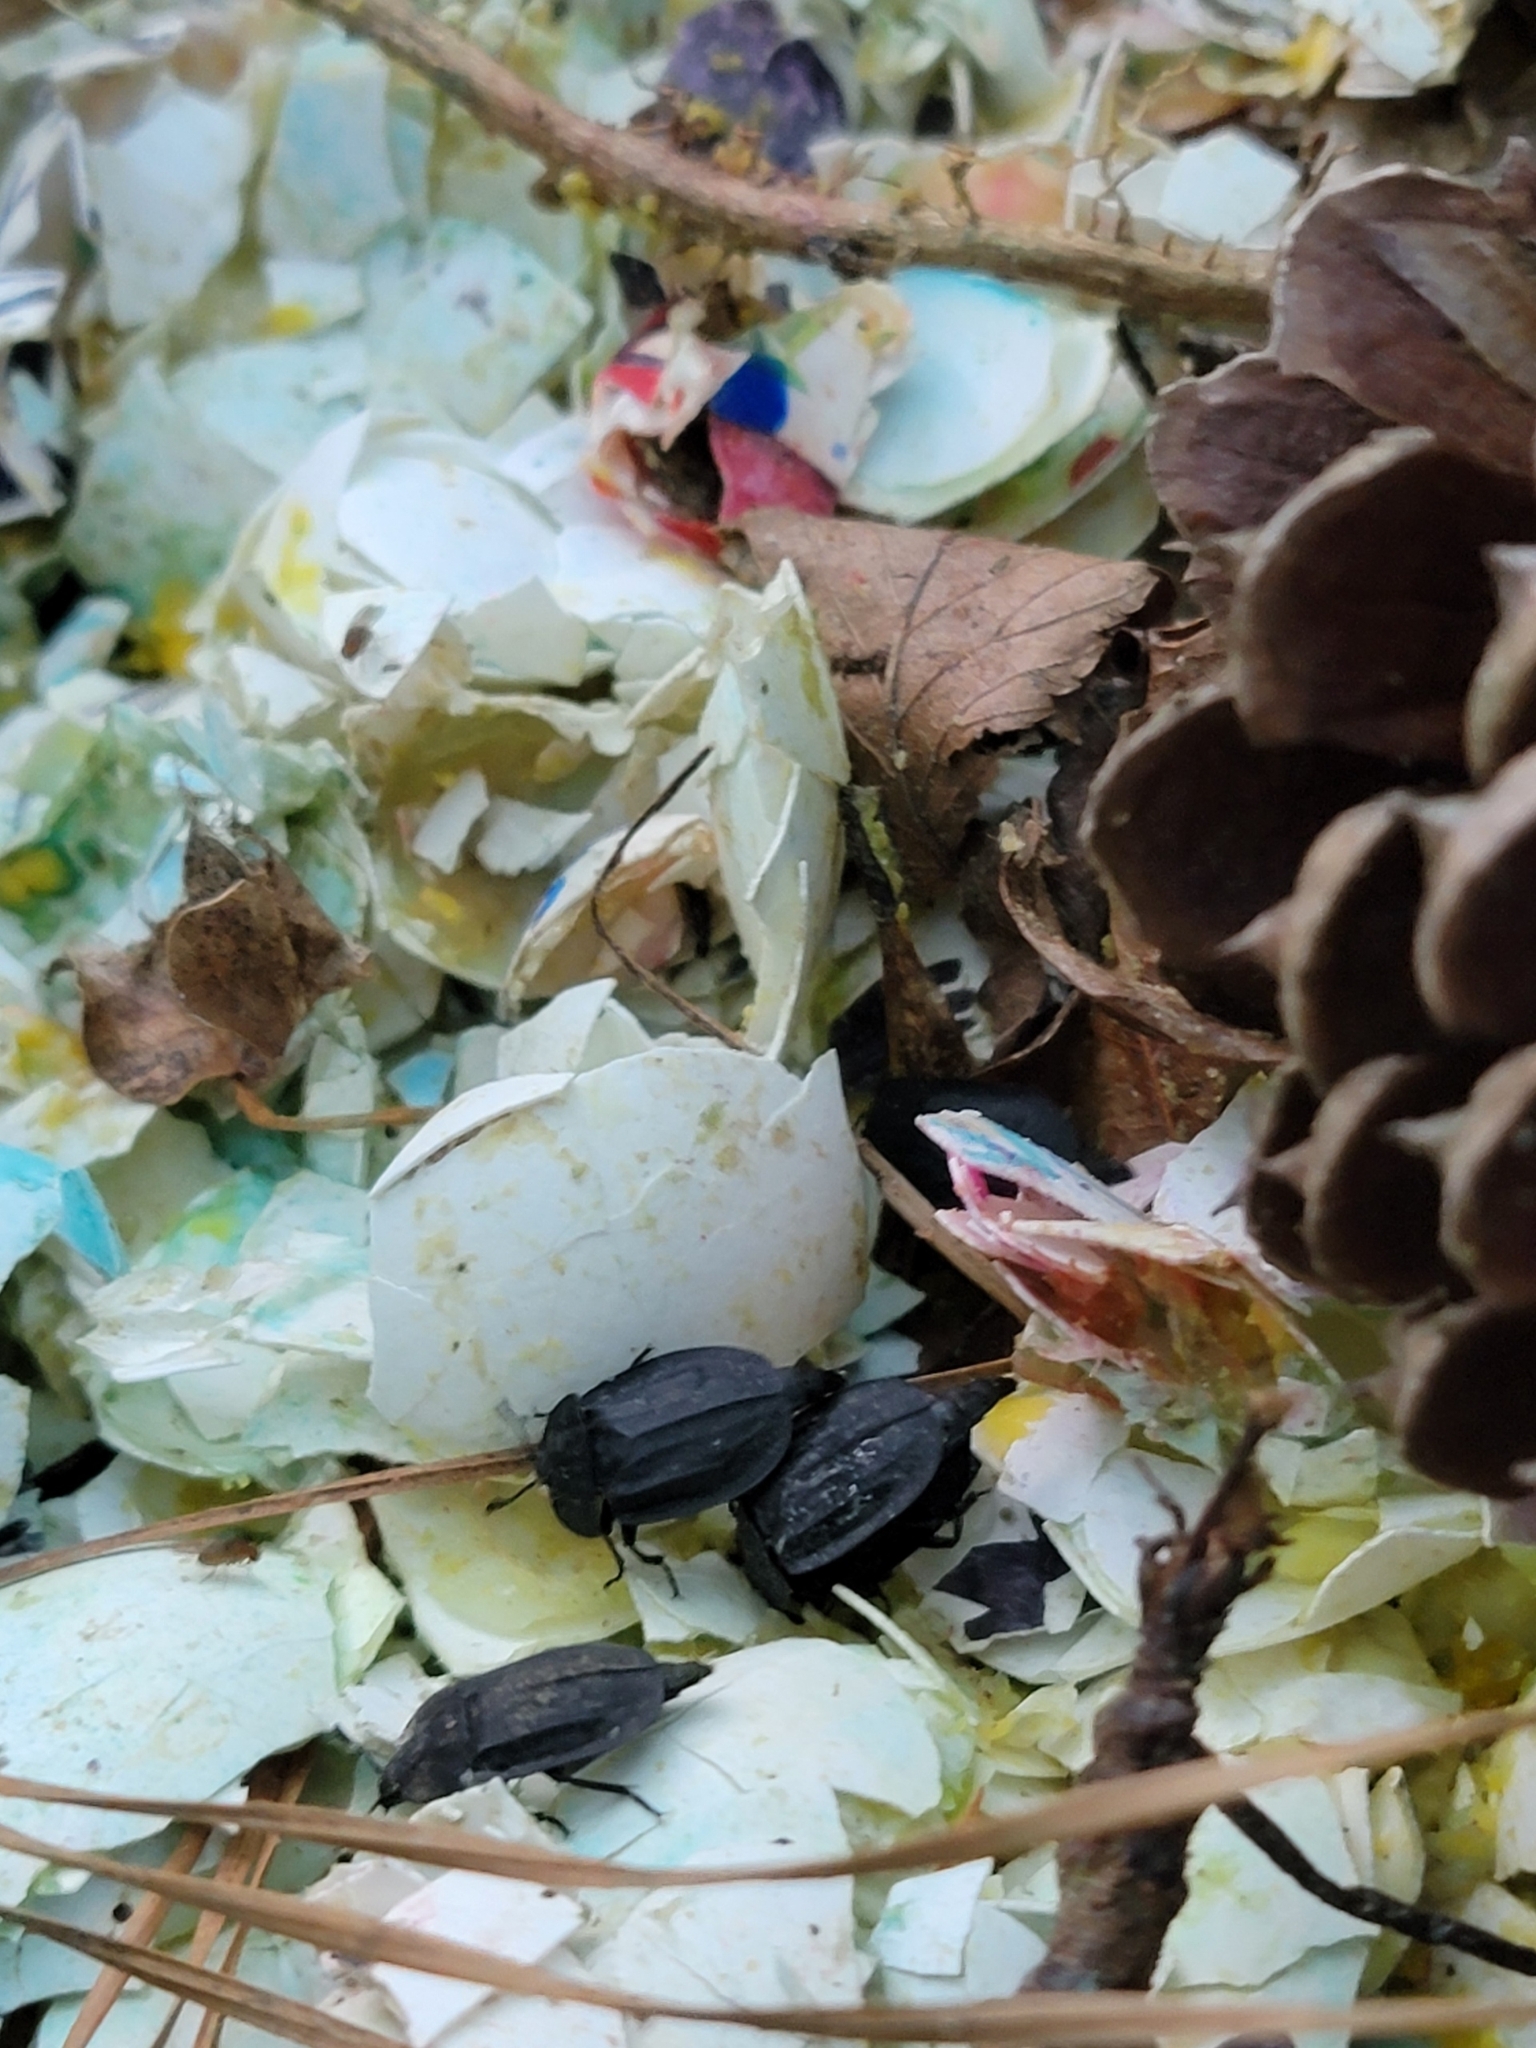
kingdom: Animalia
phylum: Arthropoda
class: Insecta
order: Coleoptera
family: Staphylinidae
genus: Oiceoptoma
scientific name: Oiceoptoma inaequale
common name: Ridged carrion beetle
